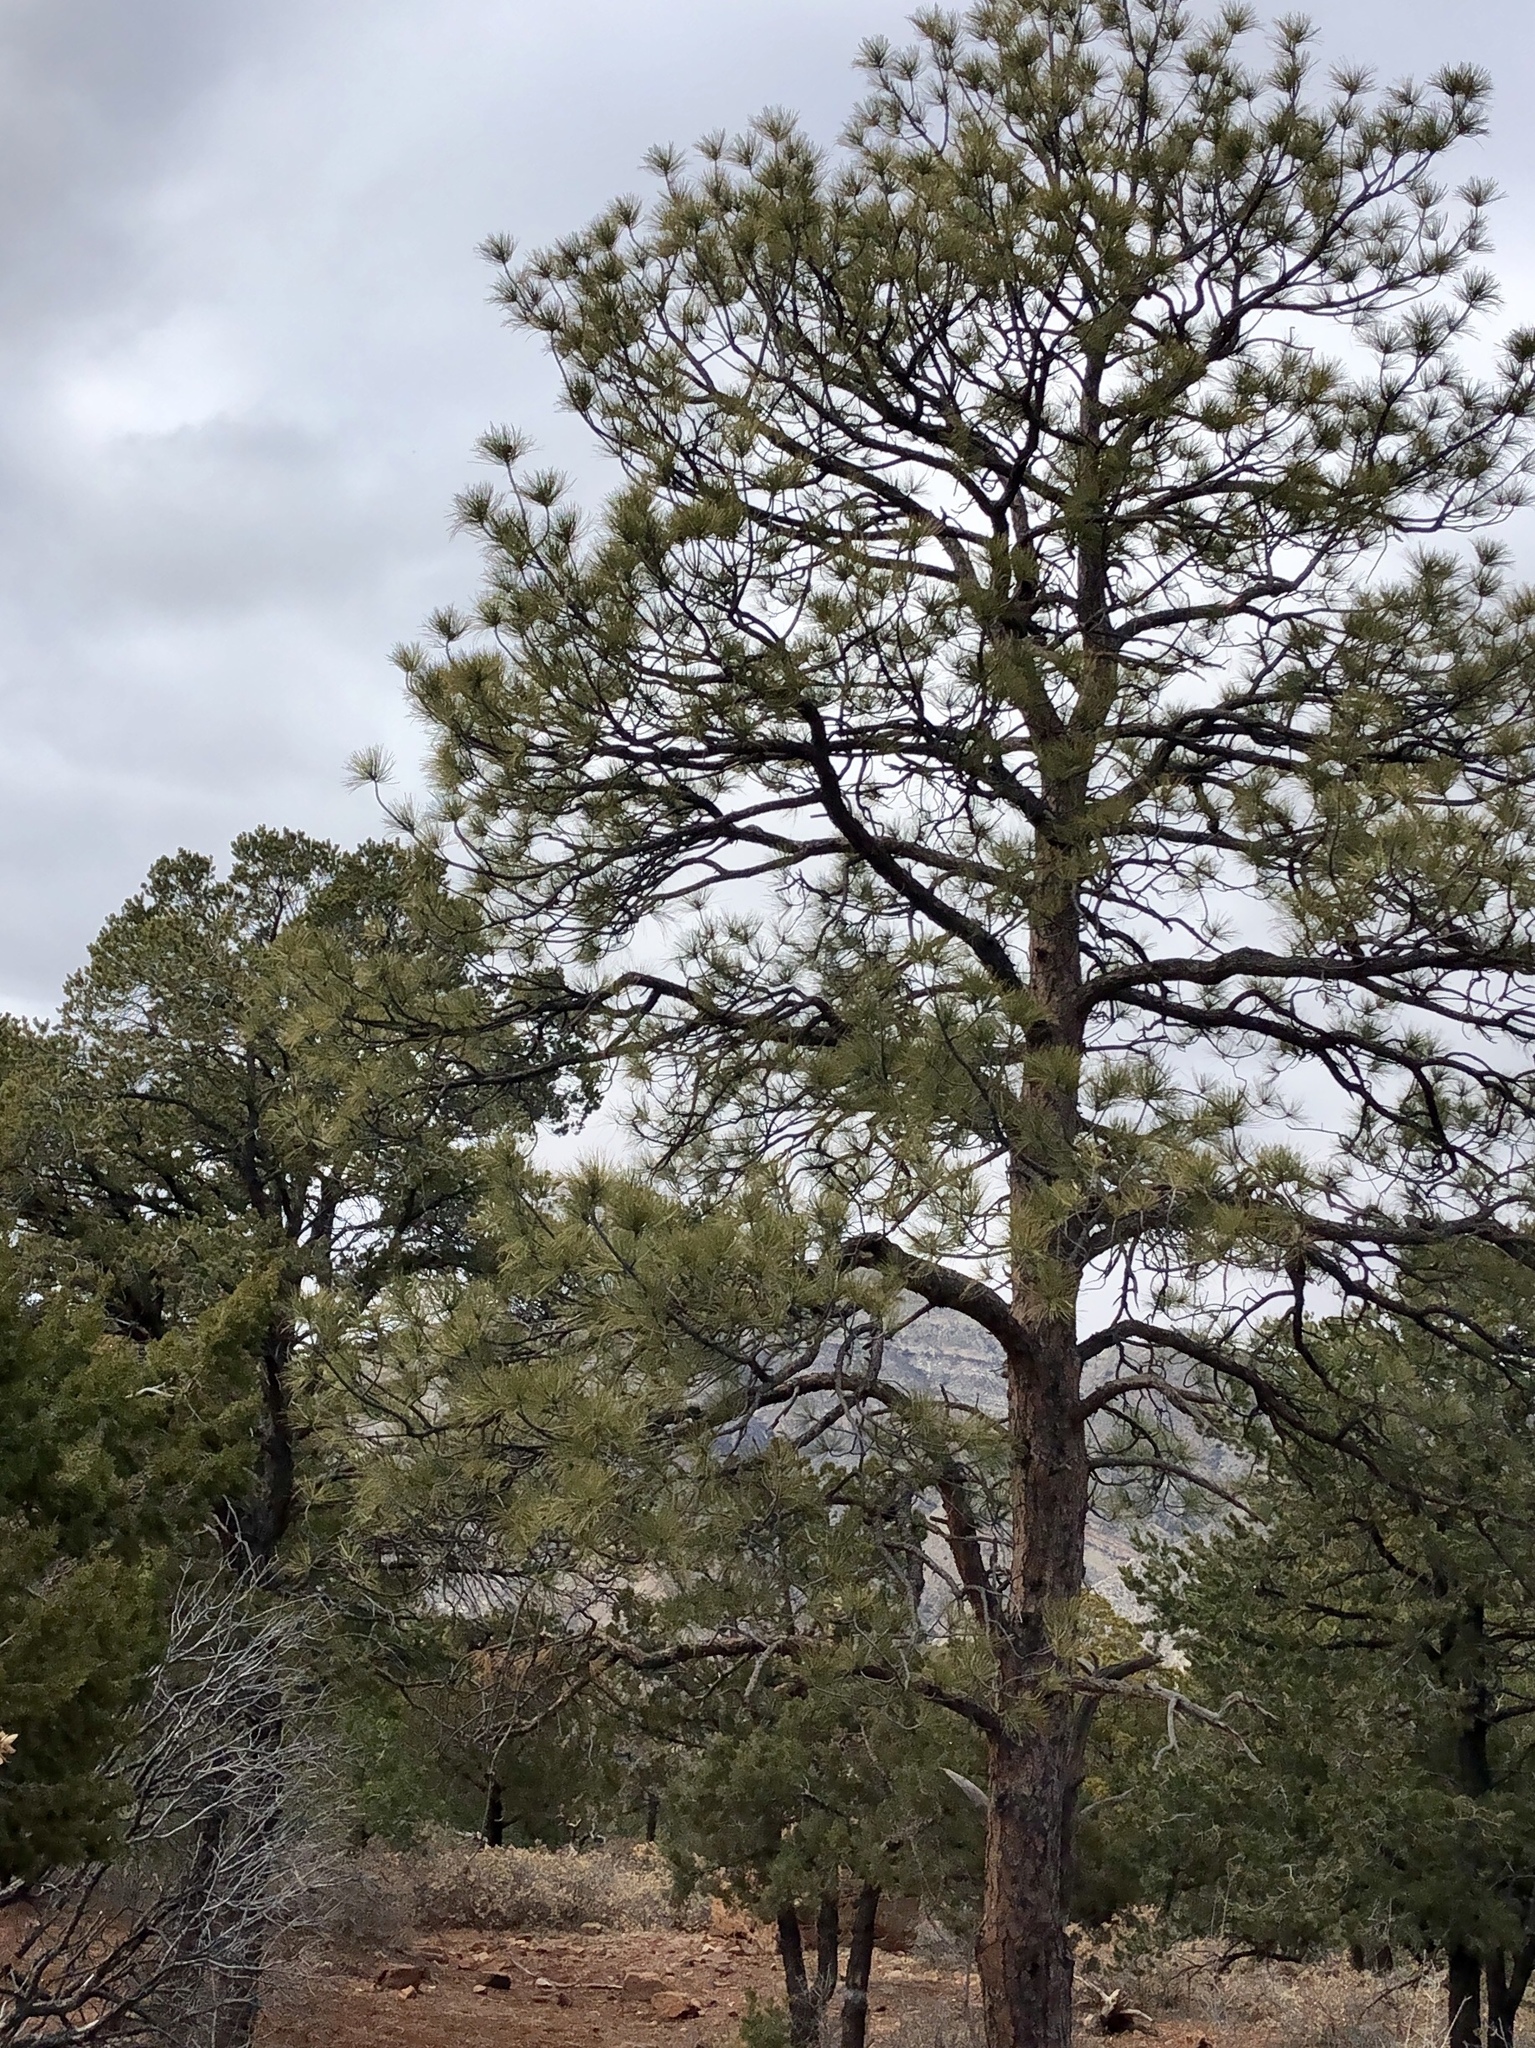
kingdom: Plantae
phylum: Tracheophyta
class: Pinopsida
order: Pinales
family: Pinaceae
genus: Pinus
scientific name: Pinus ponderosa
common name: Western yellow-pine
